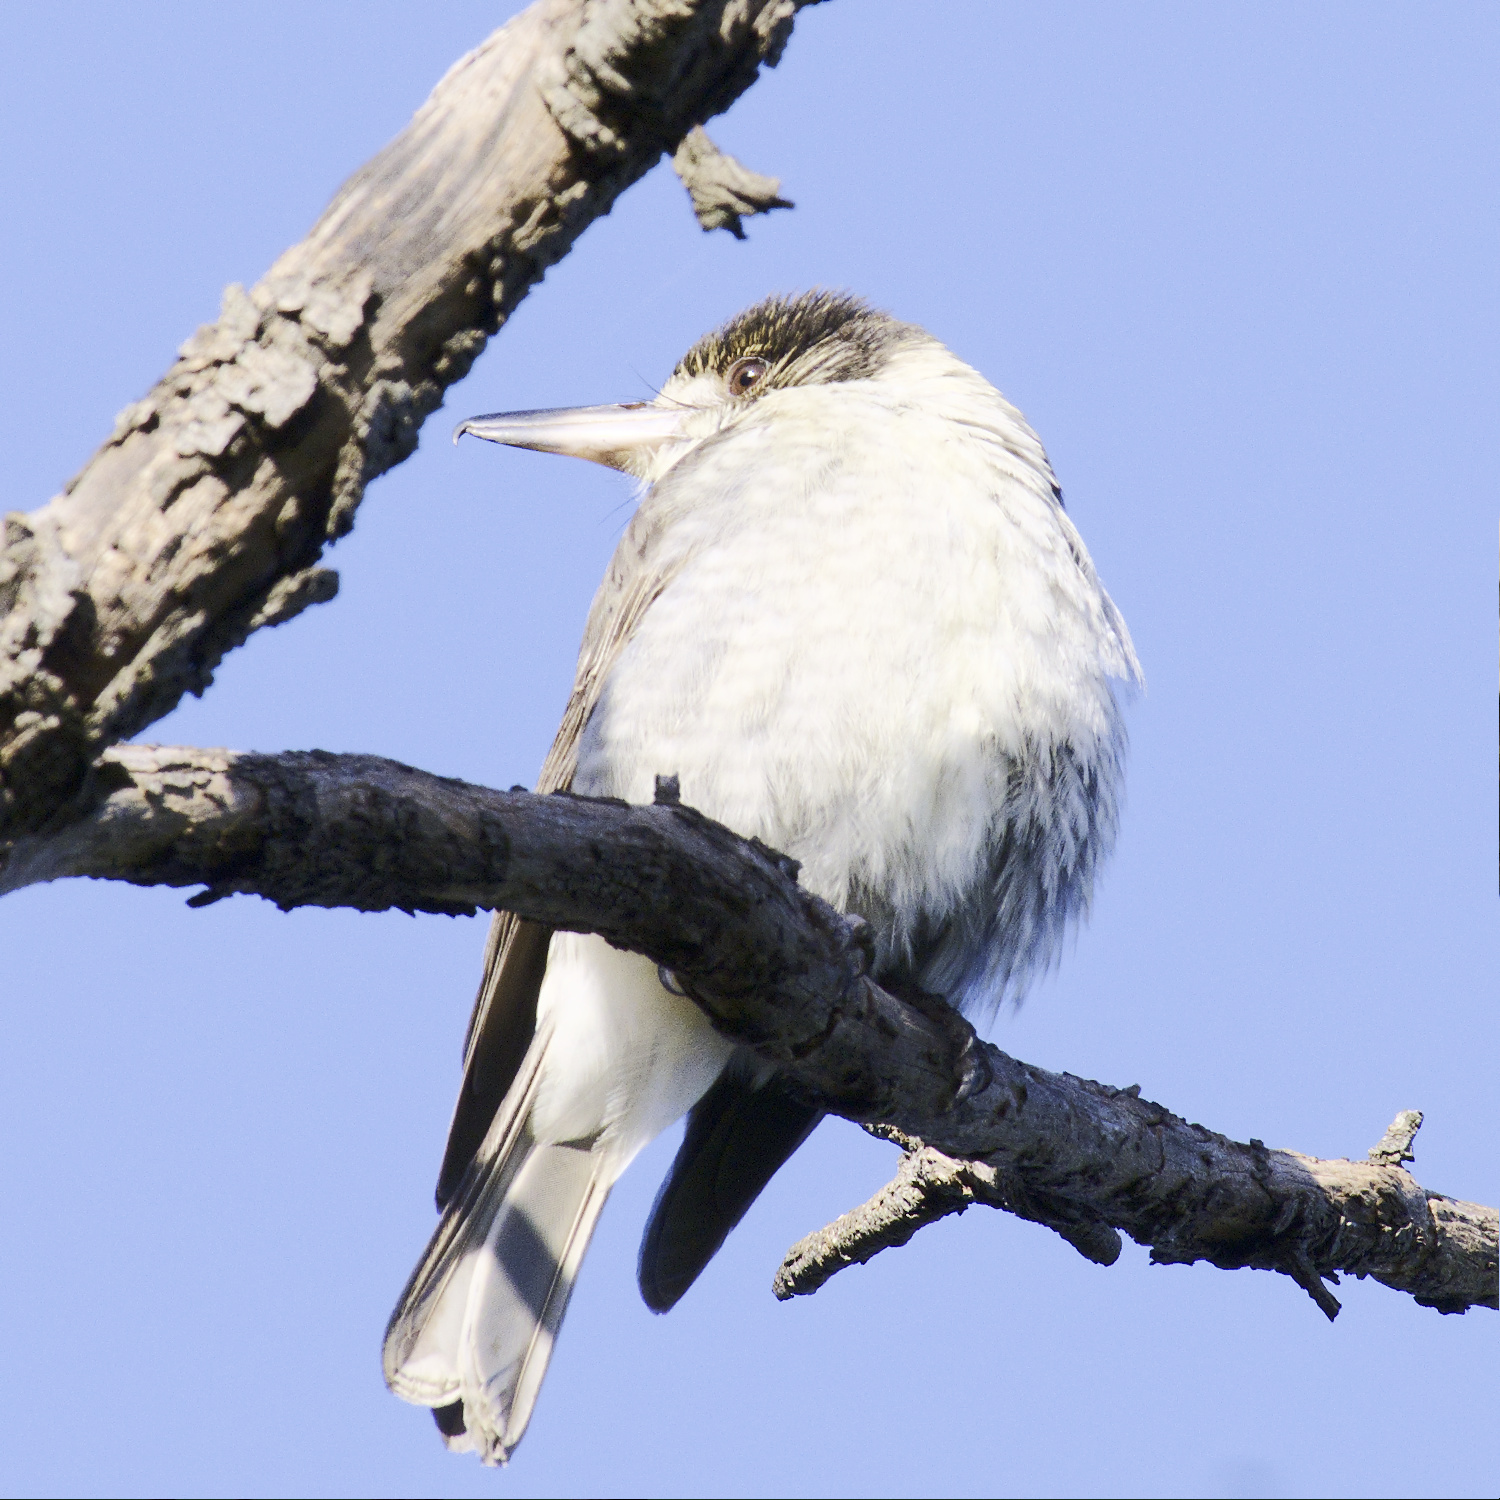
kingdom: Animalia
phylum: Chordata
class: Aves
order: Passeriformes
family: Cracticidae
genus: Cracticus
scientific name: Cracticus torquatus
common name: Grey butcherbird
